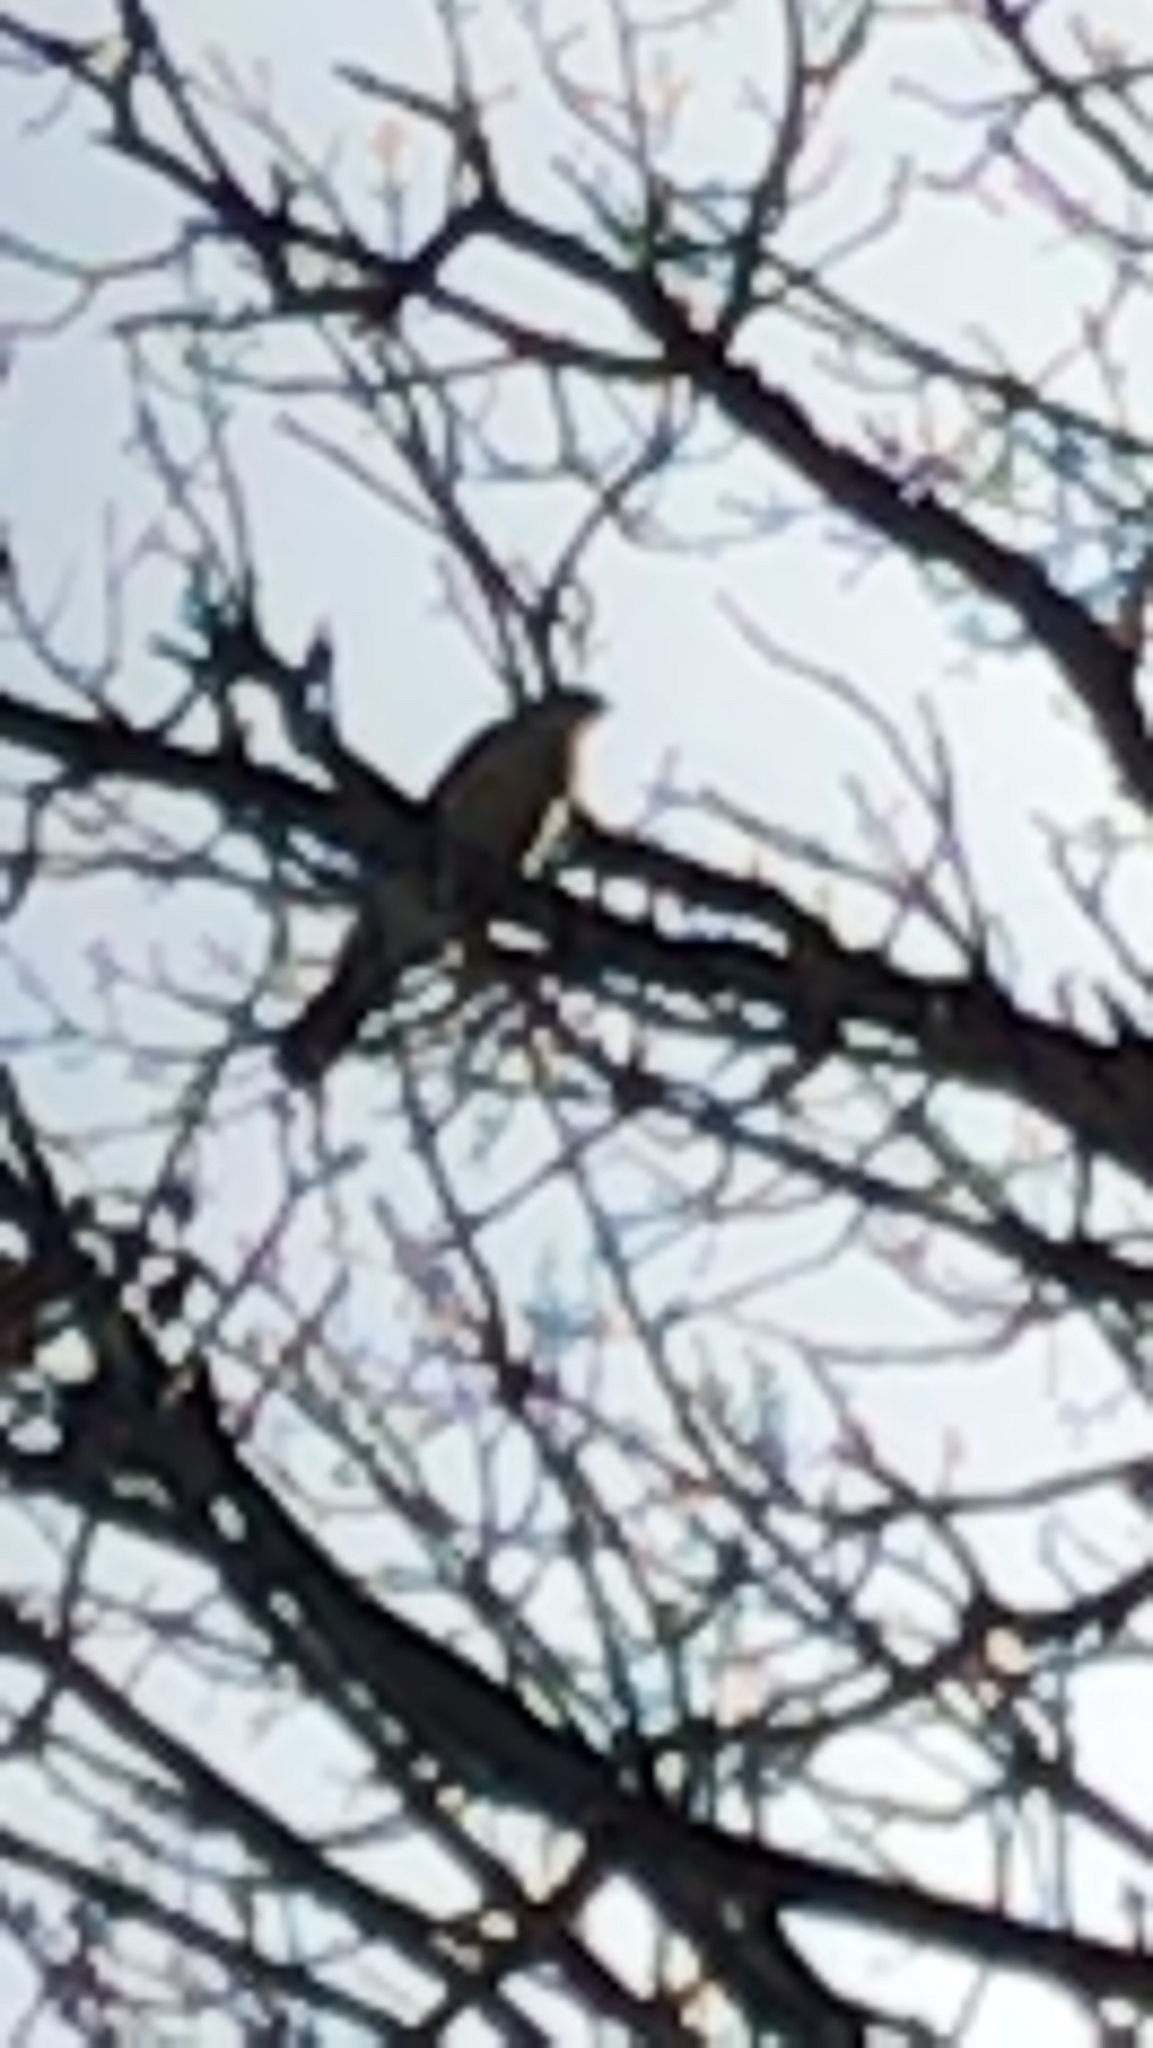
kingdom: Animalia
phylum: Chordata
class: Aves
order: Accipitriformes
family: Accipitridae
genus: Accipiter
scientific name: Accipiter
